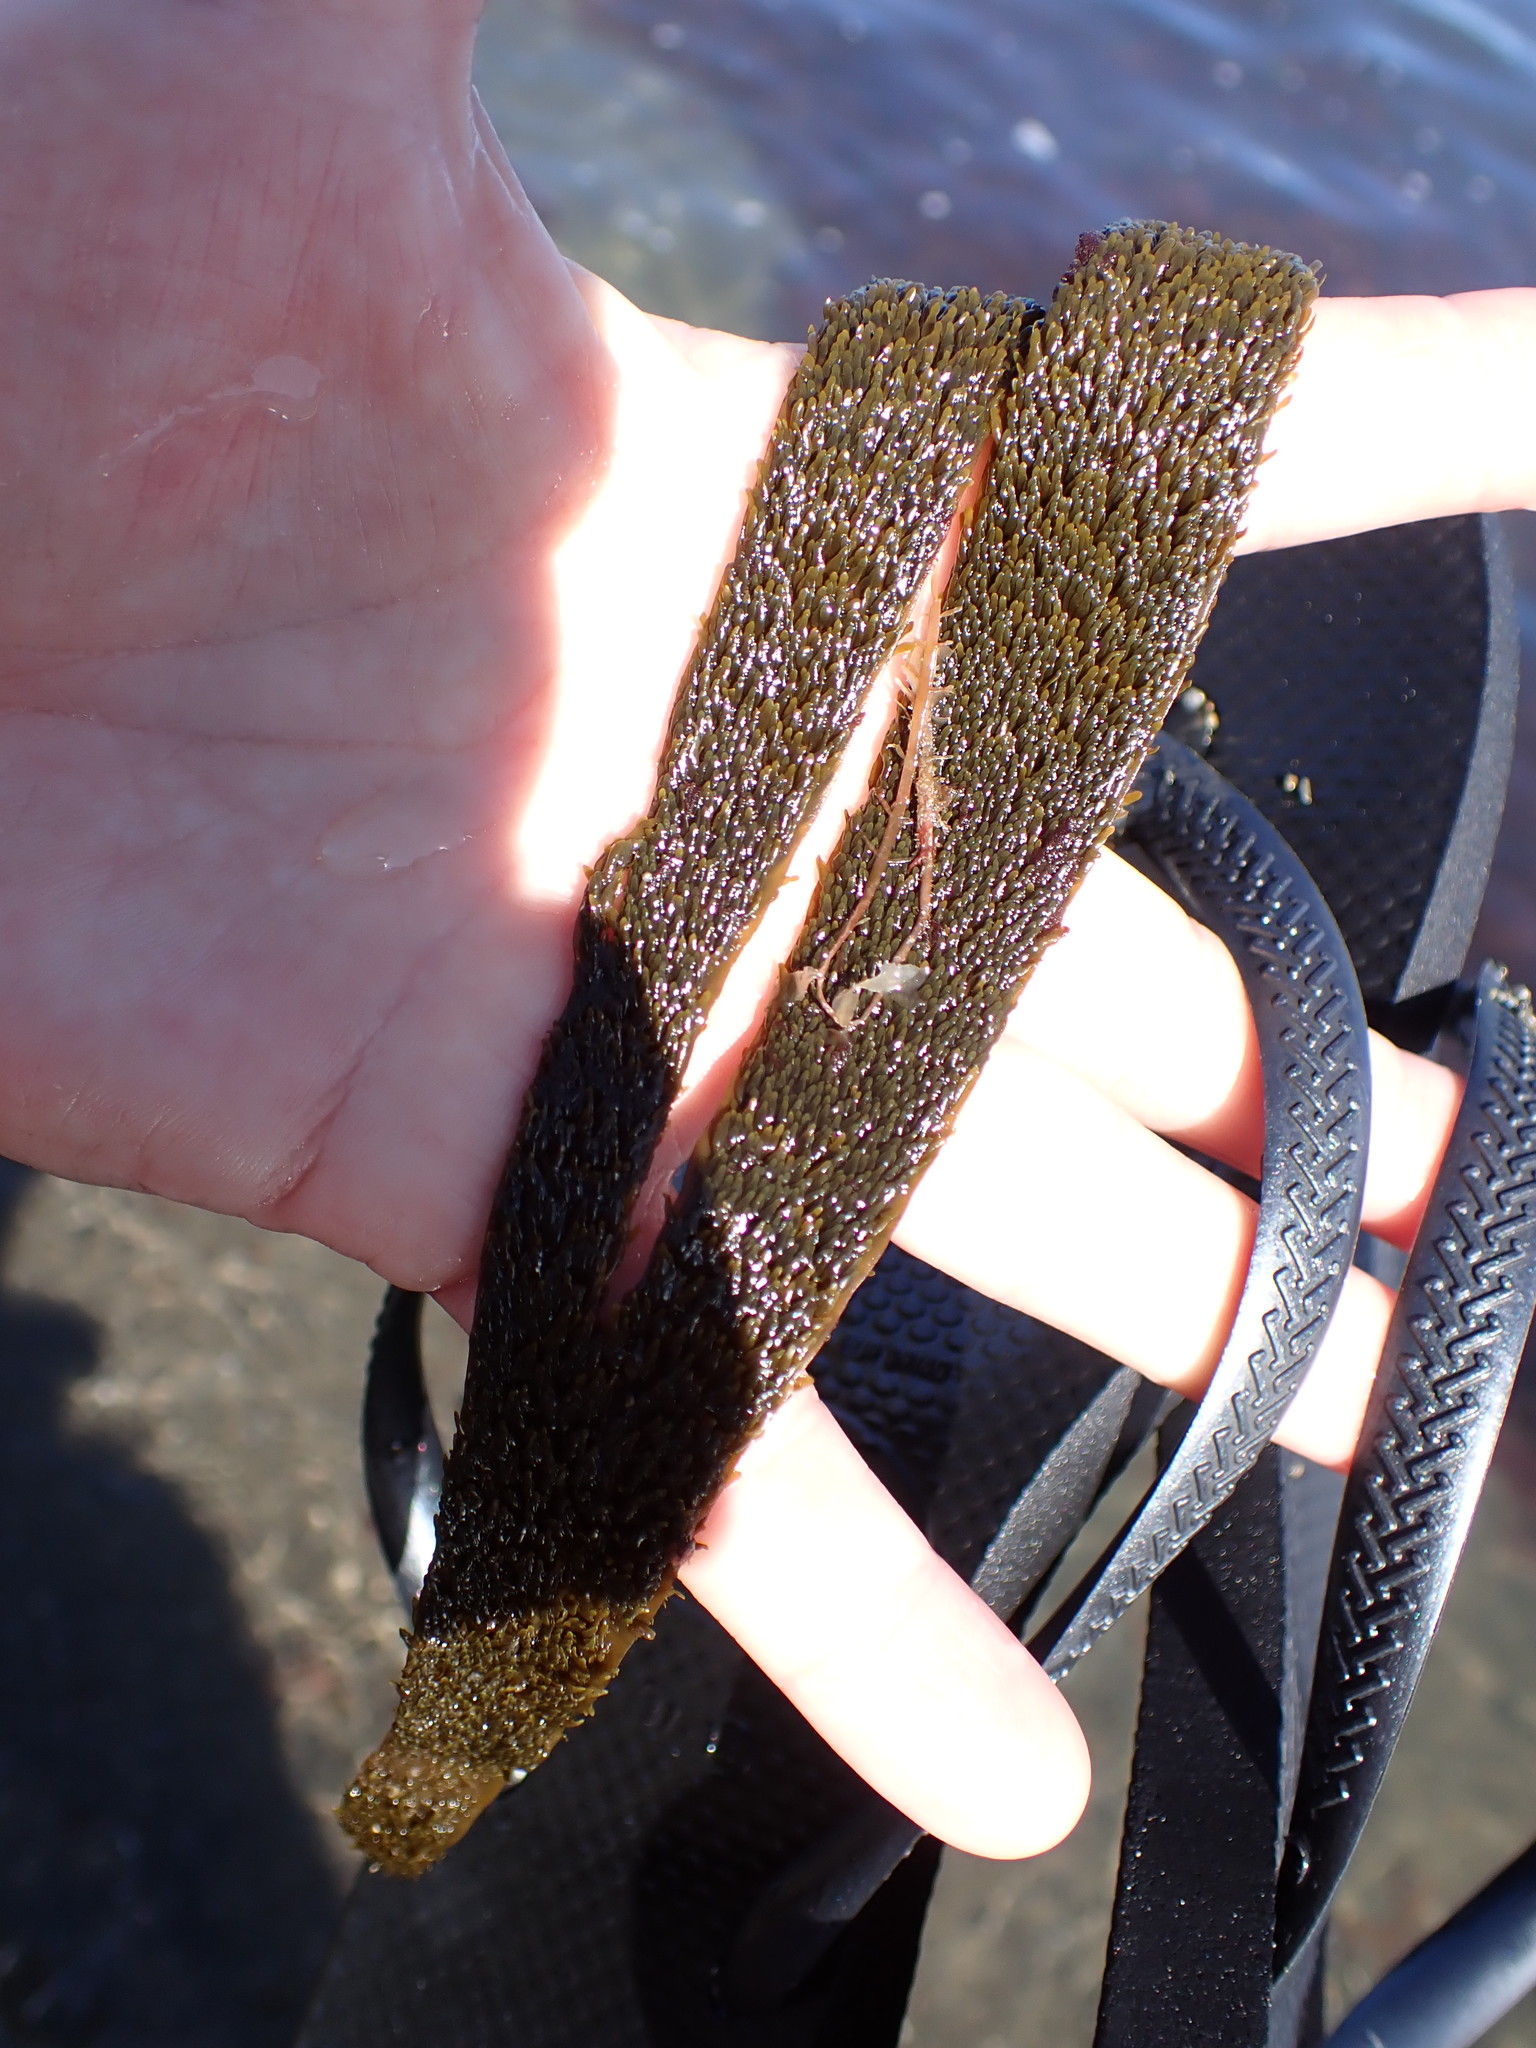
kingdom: Chromista
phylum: Ochrophyta
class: Phaeophyceae
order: Dictyotales
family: Dictyotaceae
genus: Dictyota
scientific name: Dictyota kunthii
